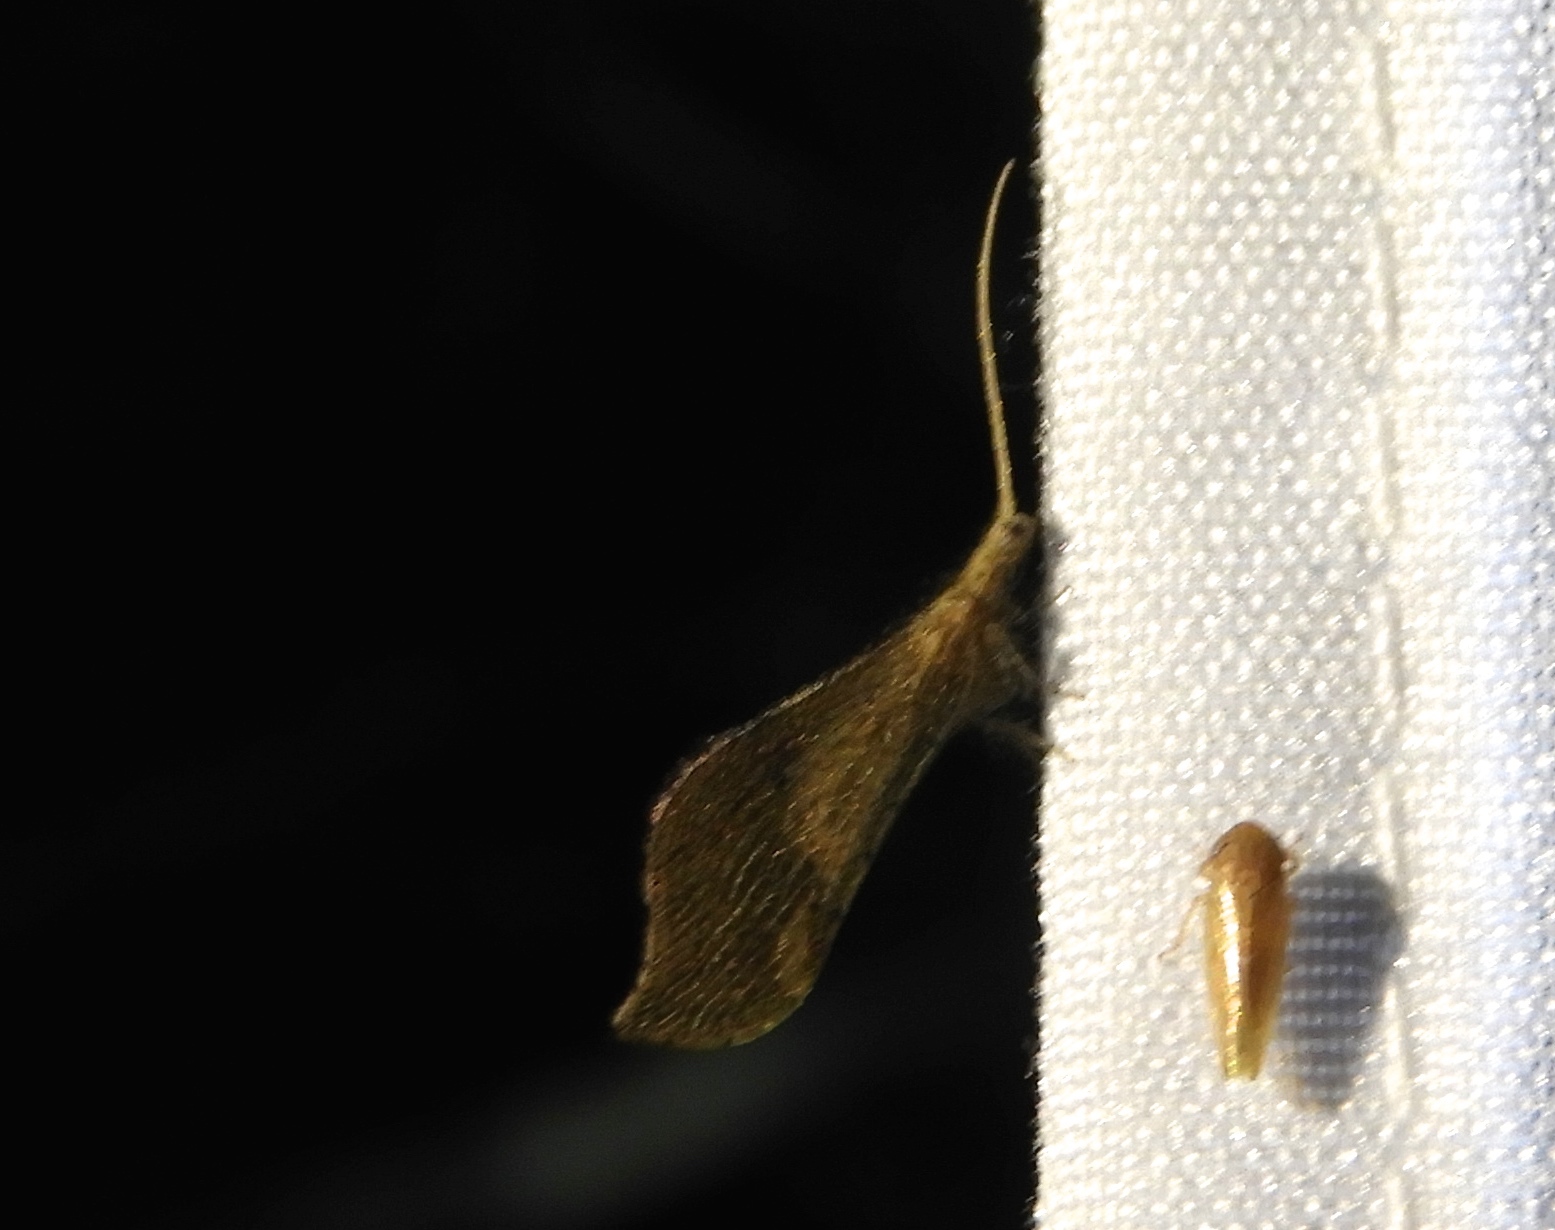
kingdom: Animalia
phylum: Arthropoda
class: Insecta
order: Neuroptera
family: Berothidae
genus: Lomamyia
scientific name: Lomamyia
